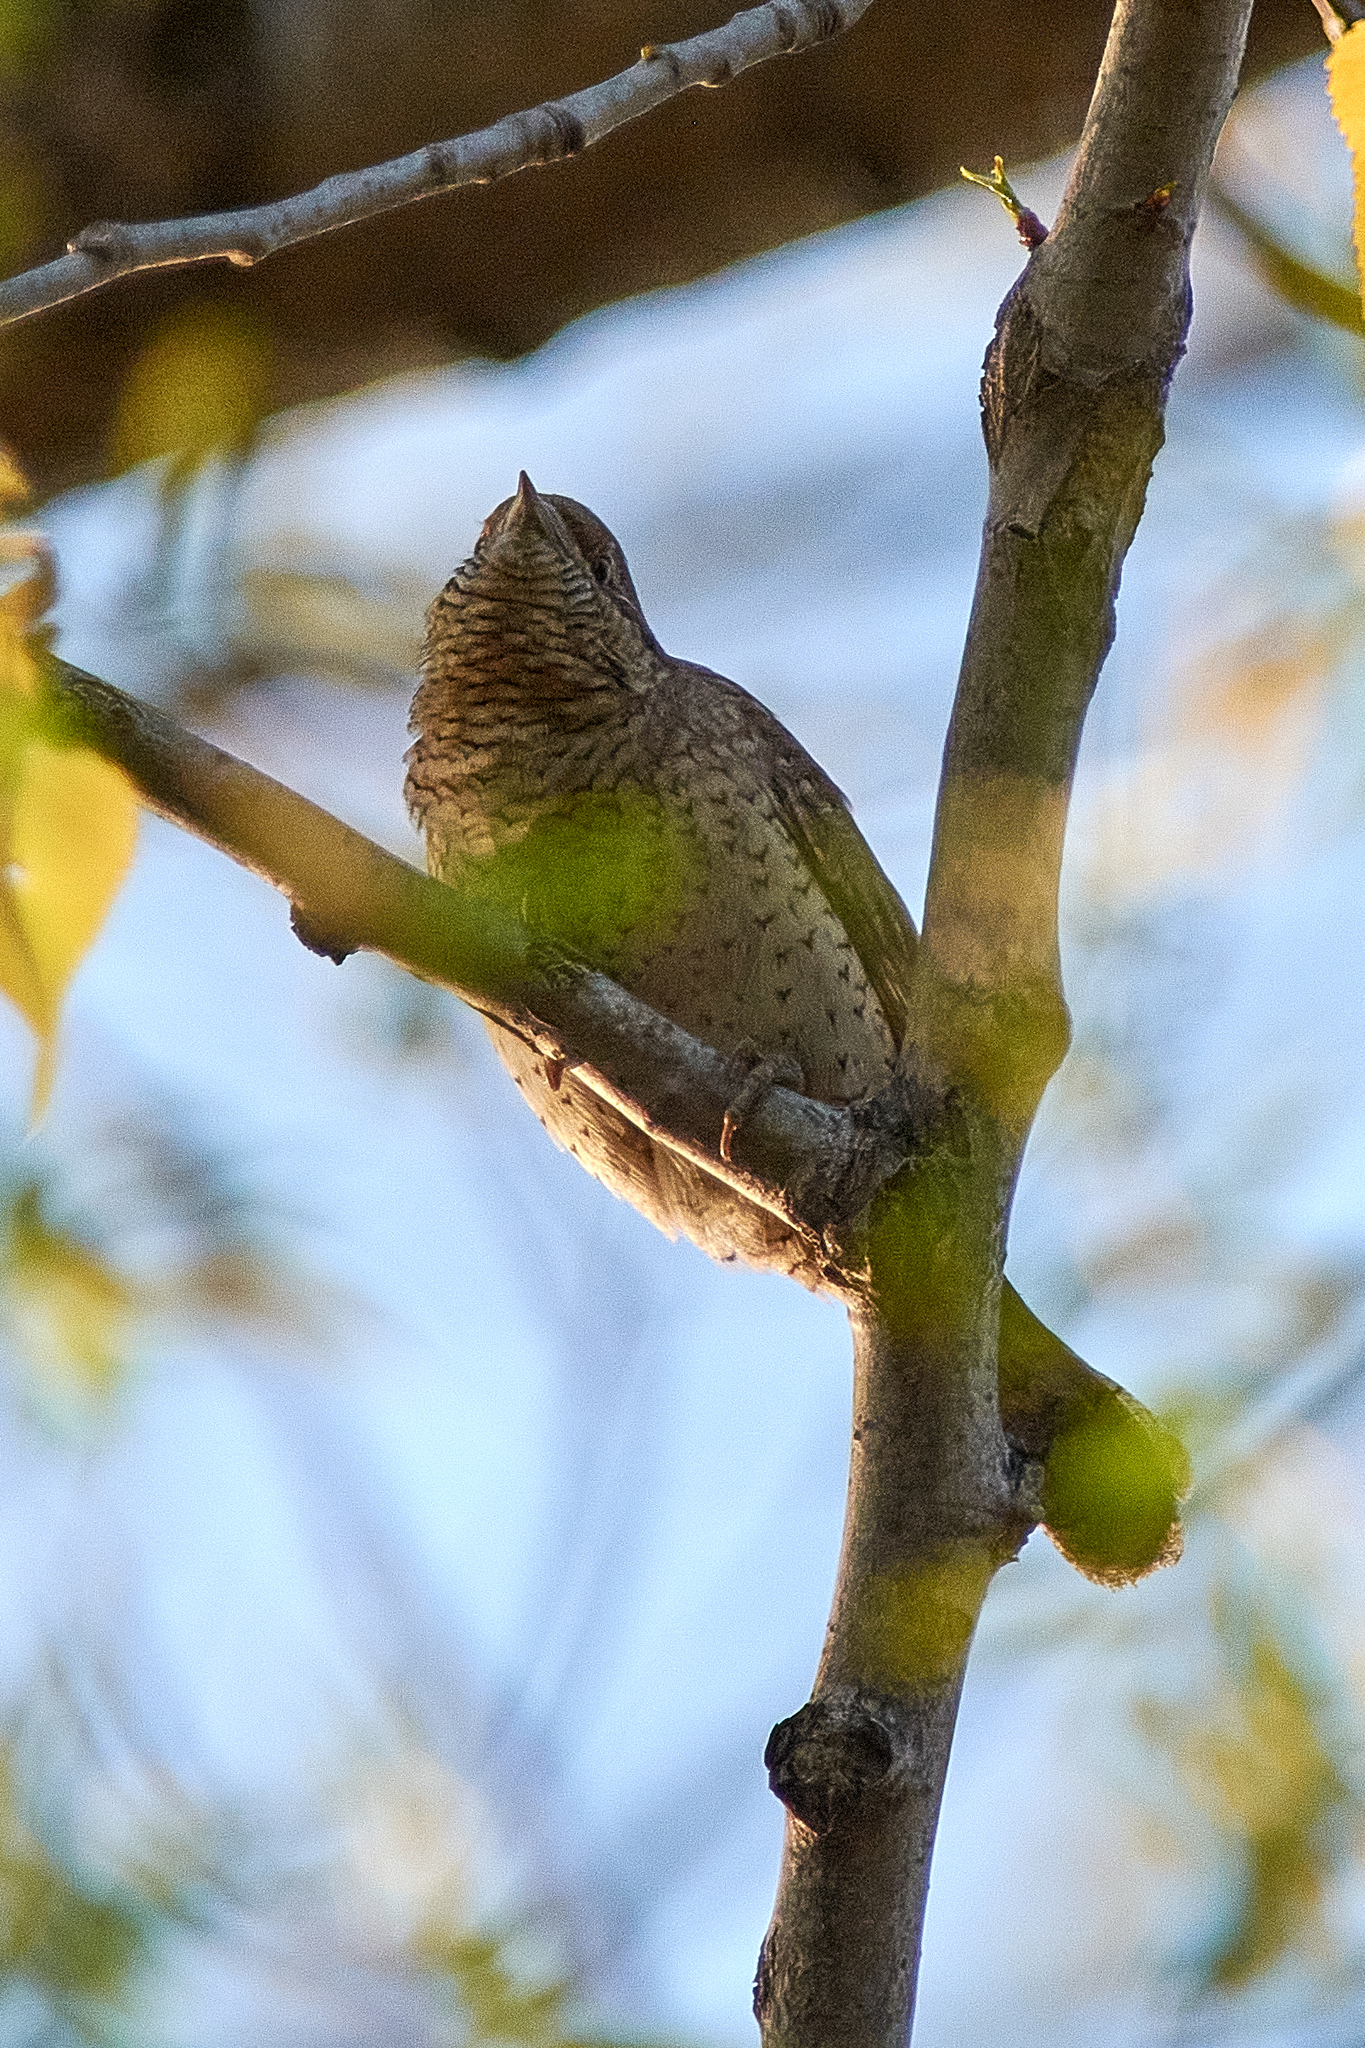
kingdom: Animalia
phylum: Chordata
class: Aves
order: Piciformes
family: Picidae
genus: Jynx
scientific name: Jynx torquilla
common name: Eurasian wryneck
